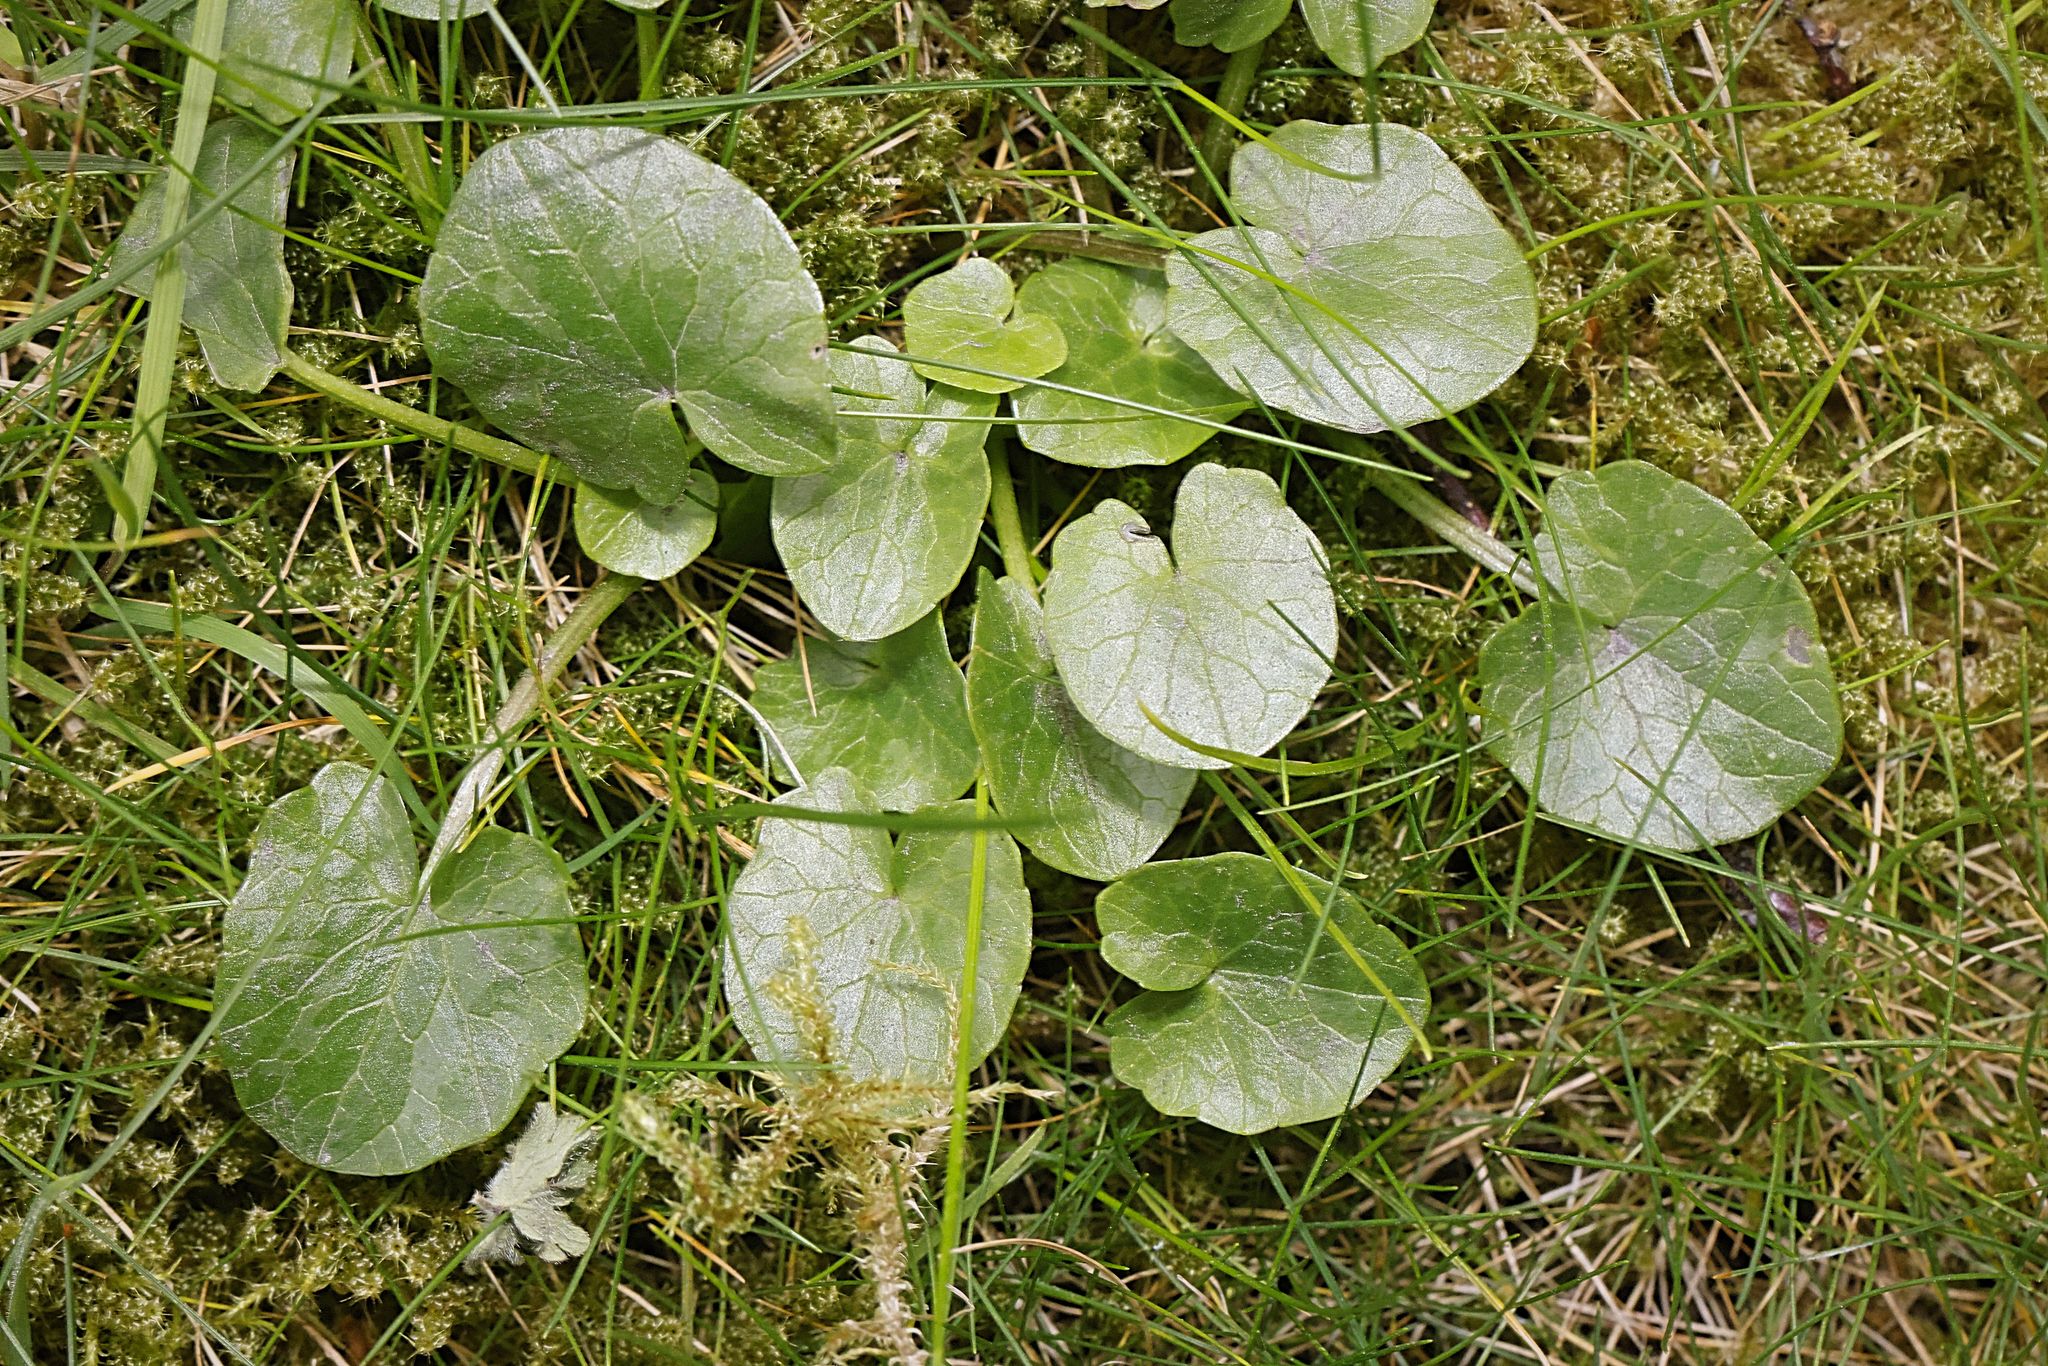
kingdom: Plantae
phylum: Tracheophyta
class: Magnoliopsida
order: Ranunculales
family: Ranunculaceae
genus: Ficaria
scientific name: Ficaria verna
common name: Lesser celandine
